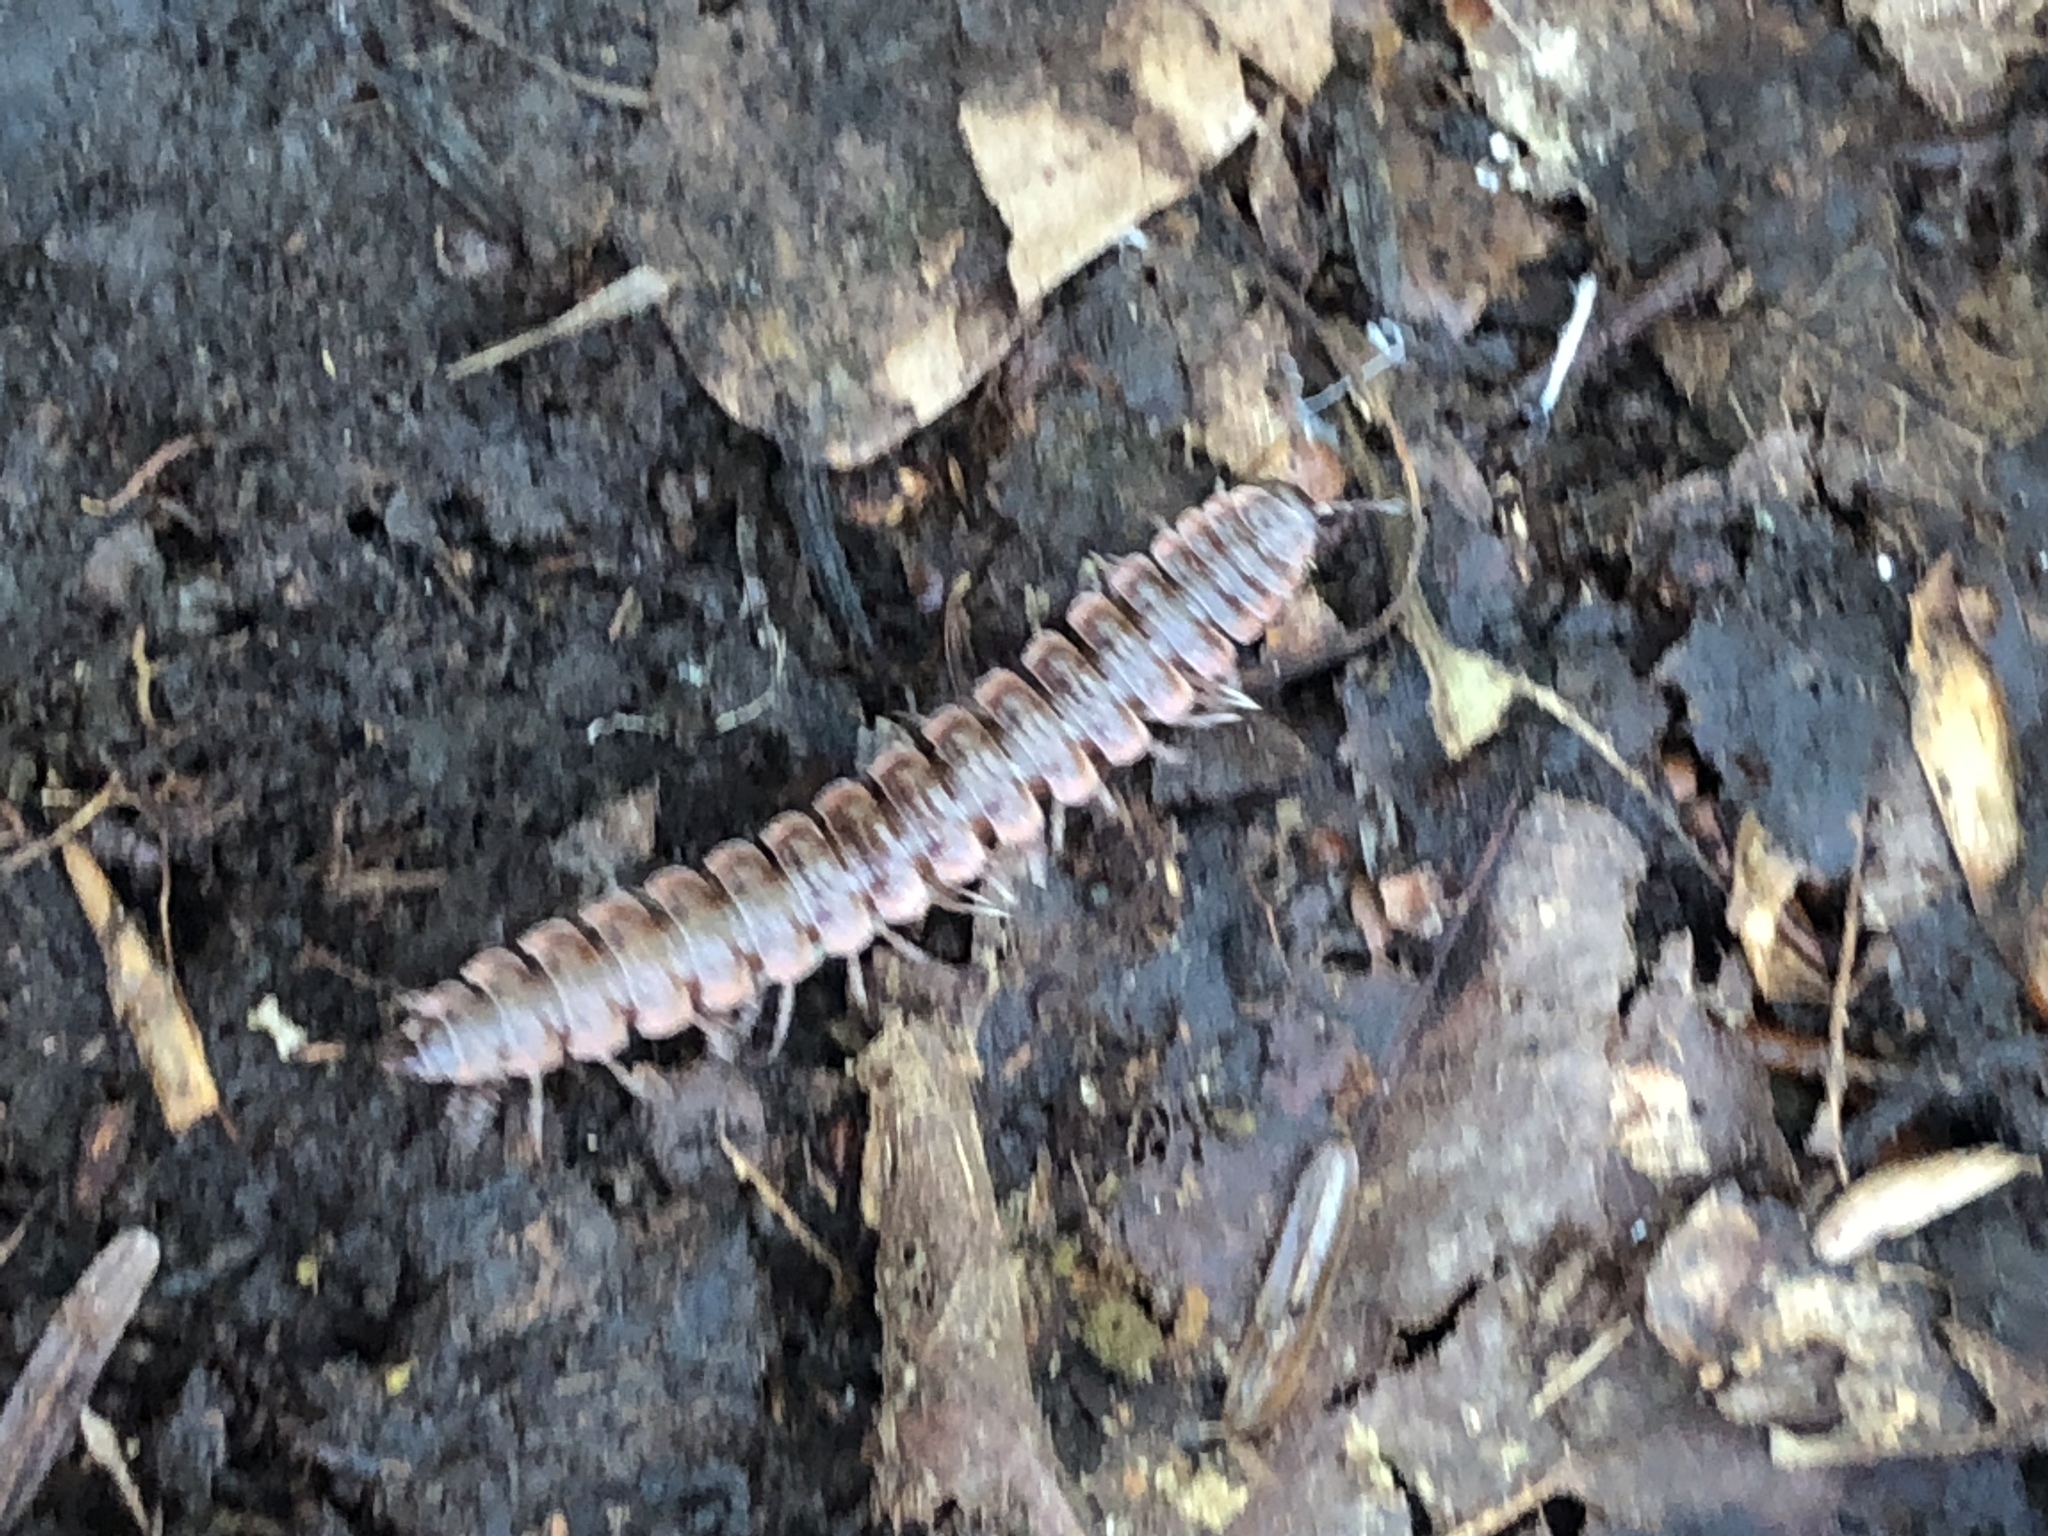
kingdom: Animalia
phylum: Arthropoda
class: Diplopoda
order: Polydesmida
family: Polydesmidae
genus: Pseudopolydesmus
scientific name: Pseudopolydesmus serratus
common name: Common pink flat-back millipede
